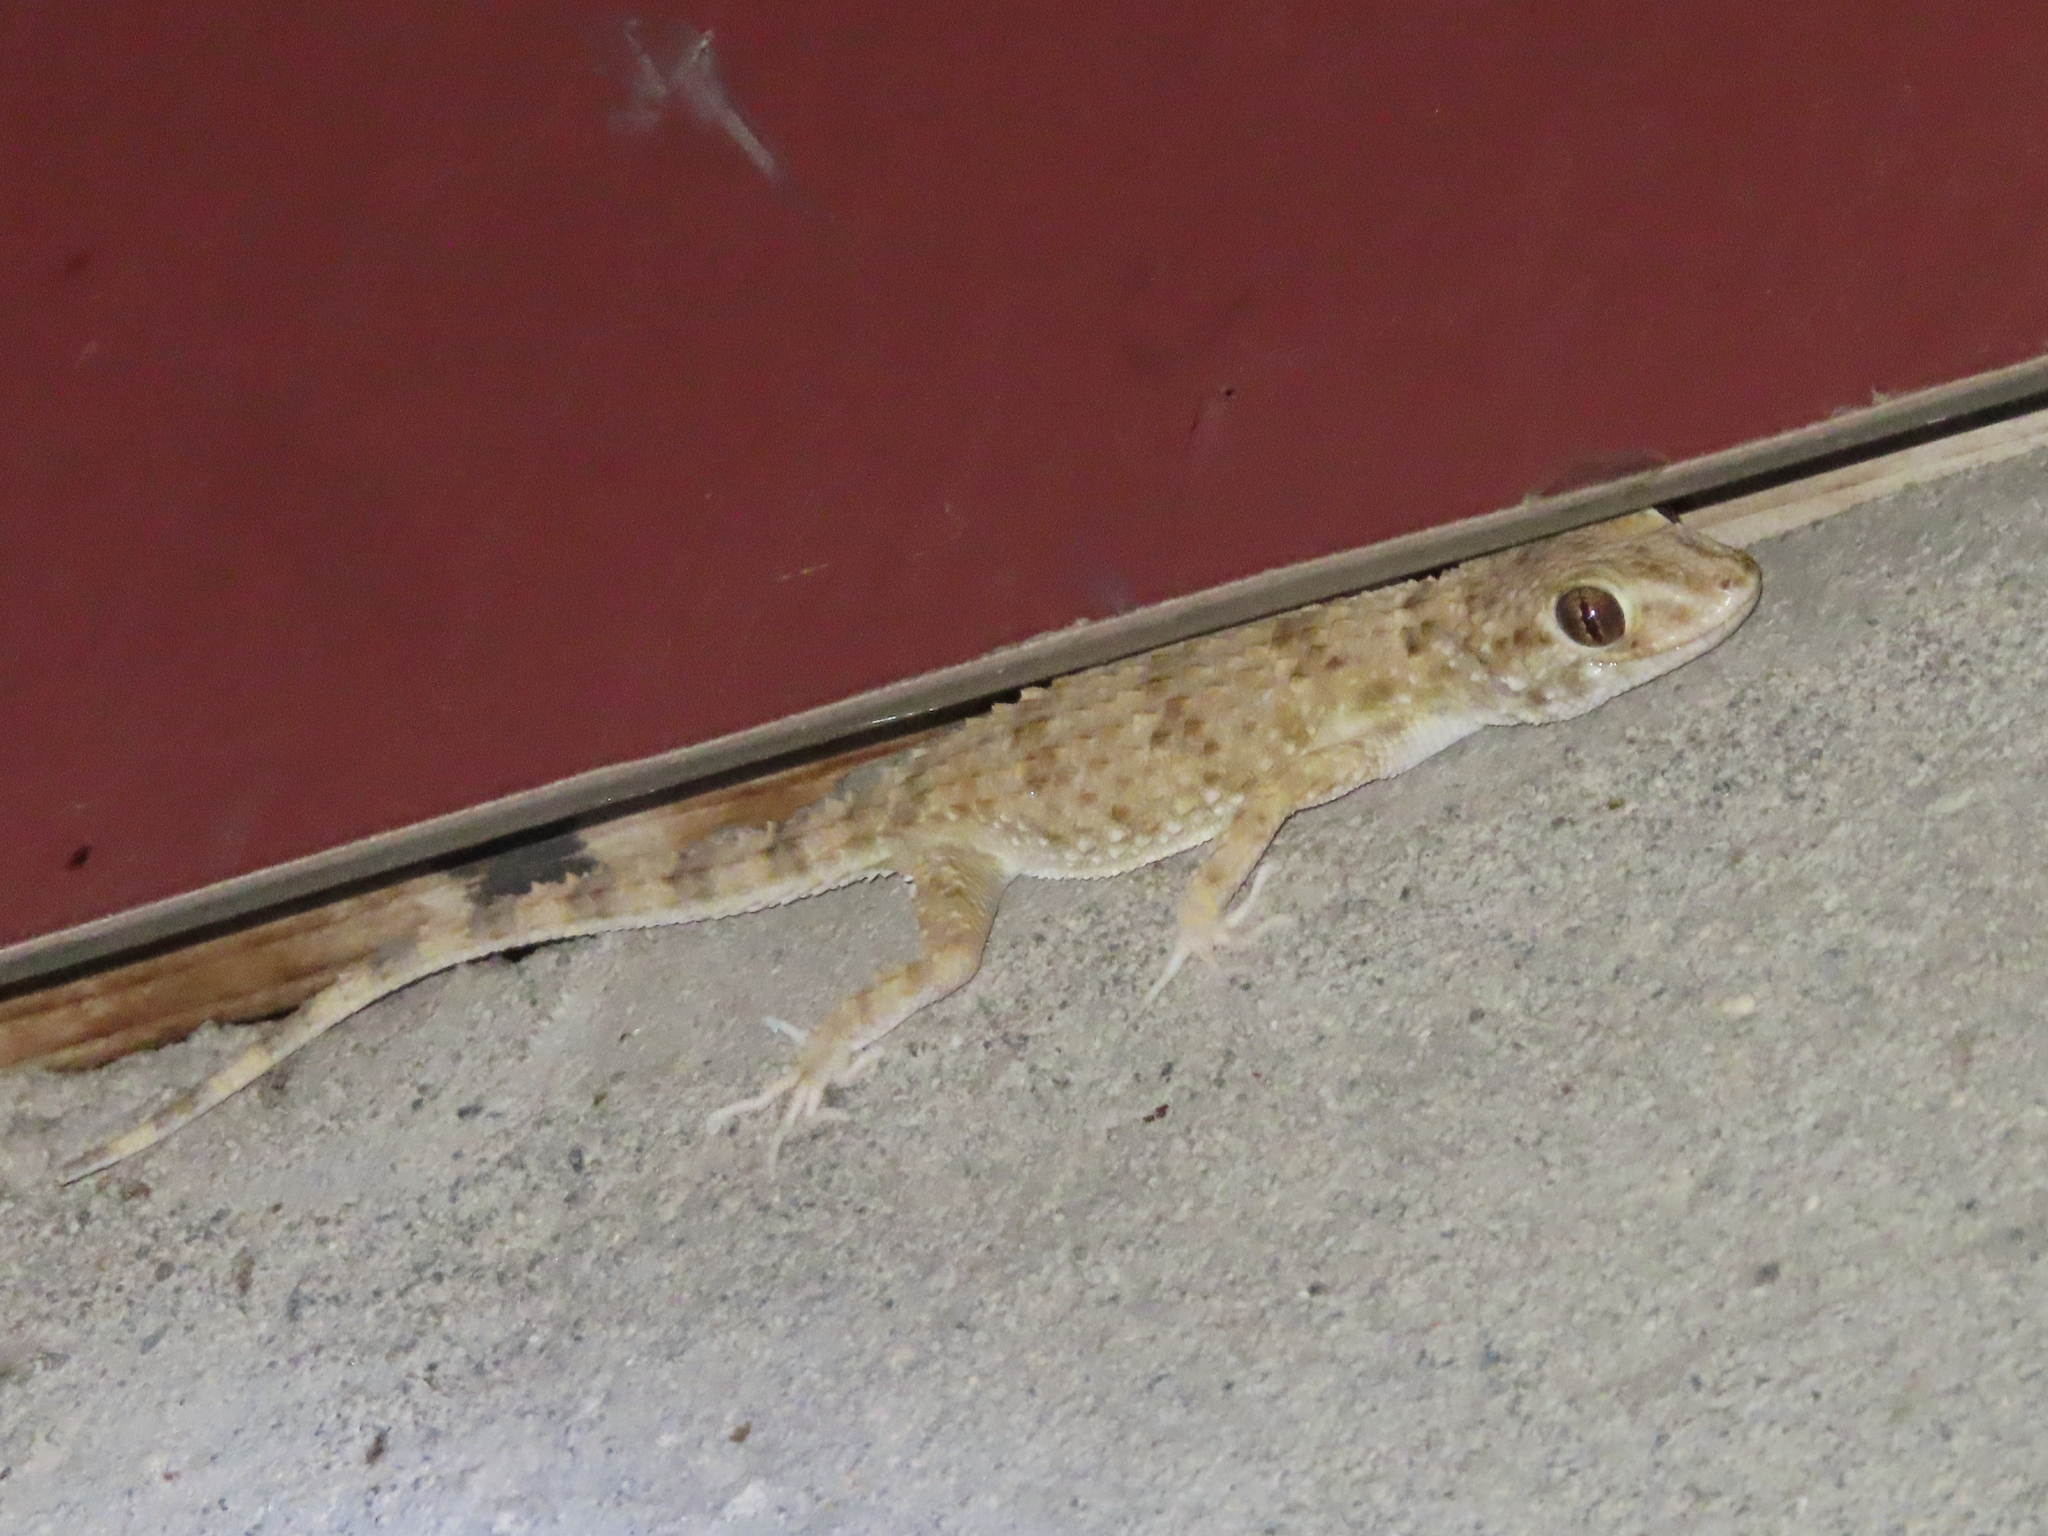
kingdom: Animalia
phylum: Chordata
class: Squamata
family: Gekkonidae
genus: Tenuidactylus
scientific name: Tenuidactylus caspius
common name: Caspian bent-toed gecko
